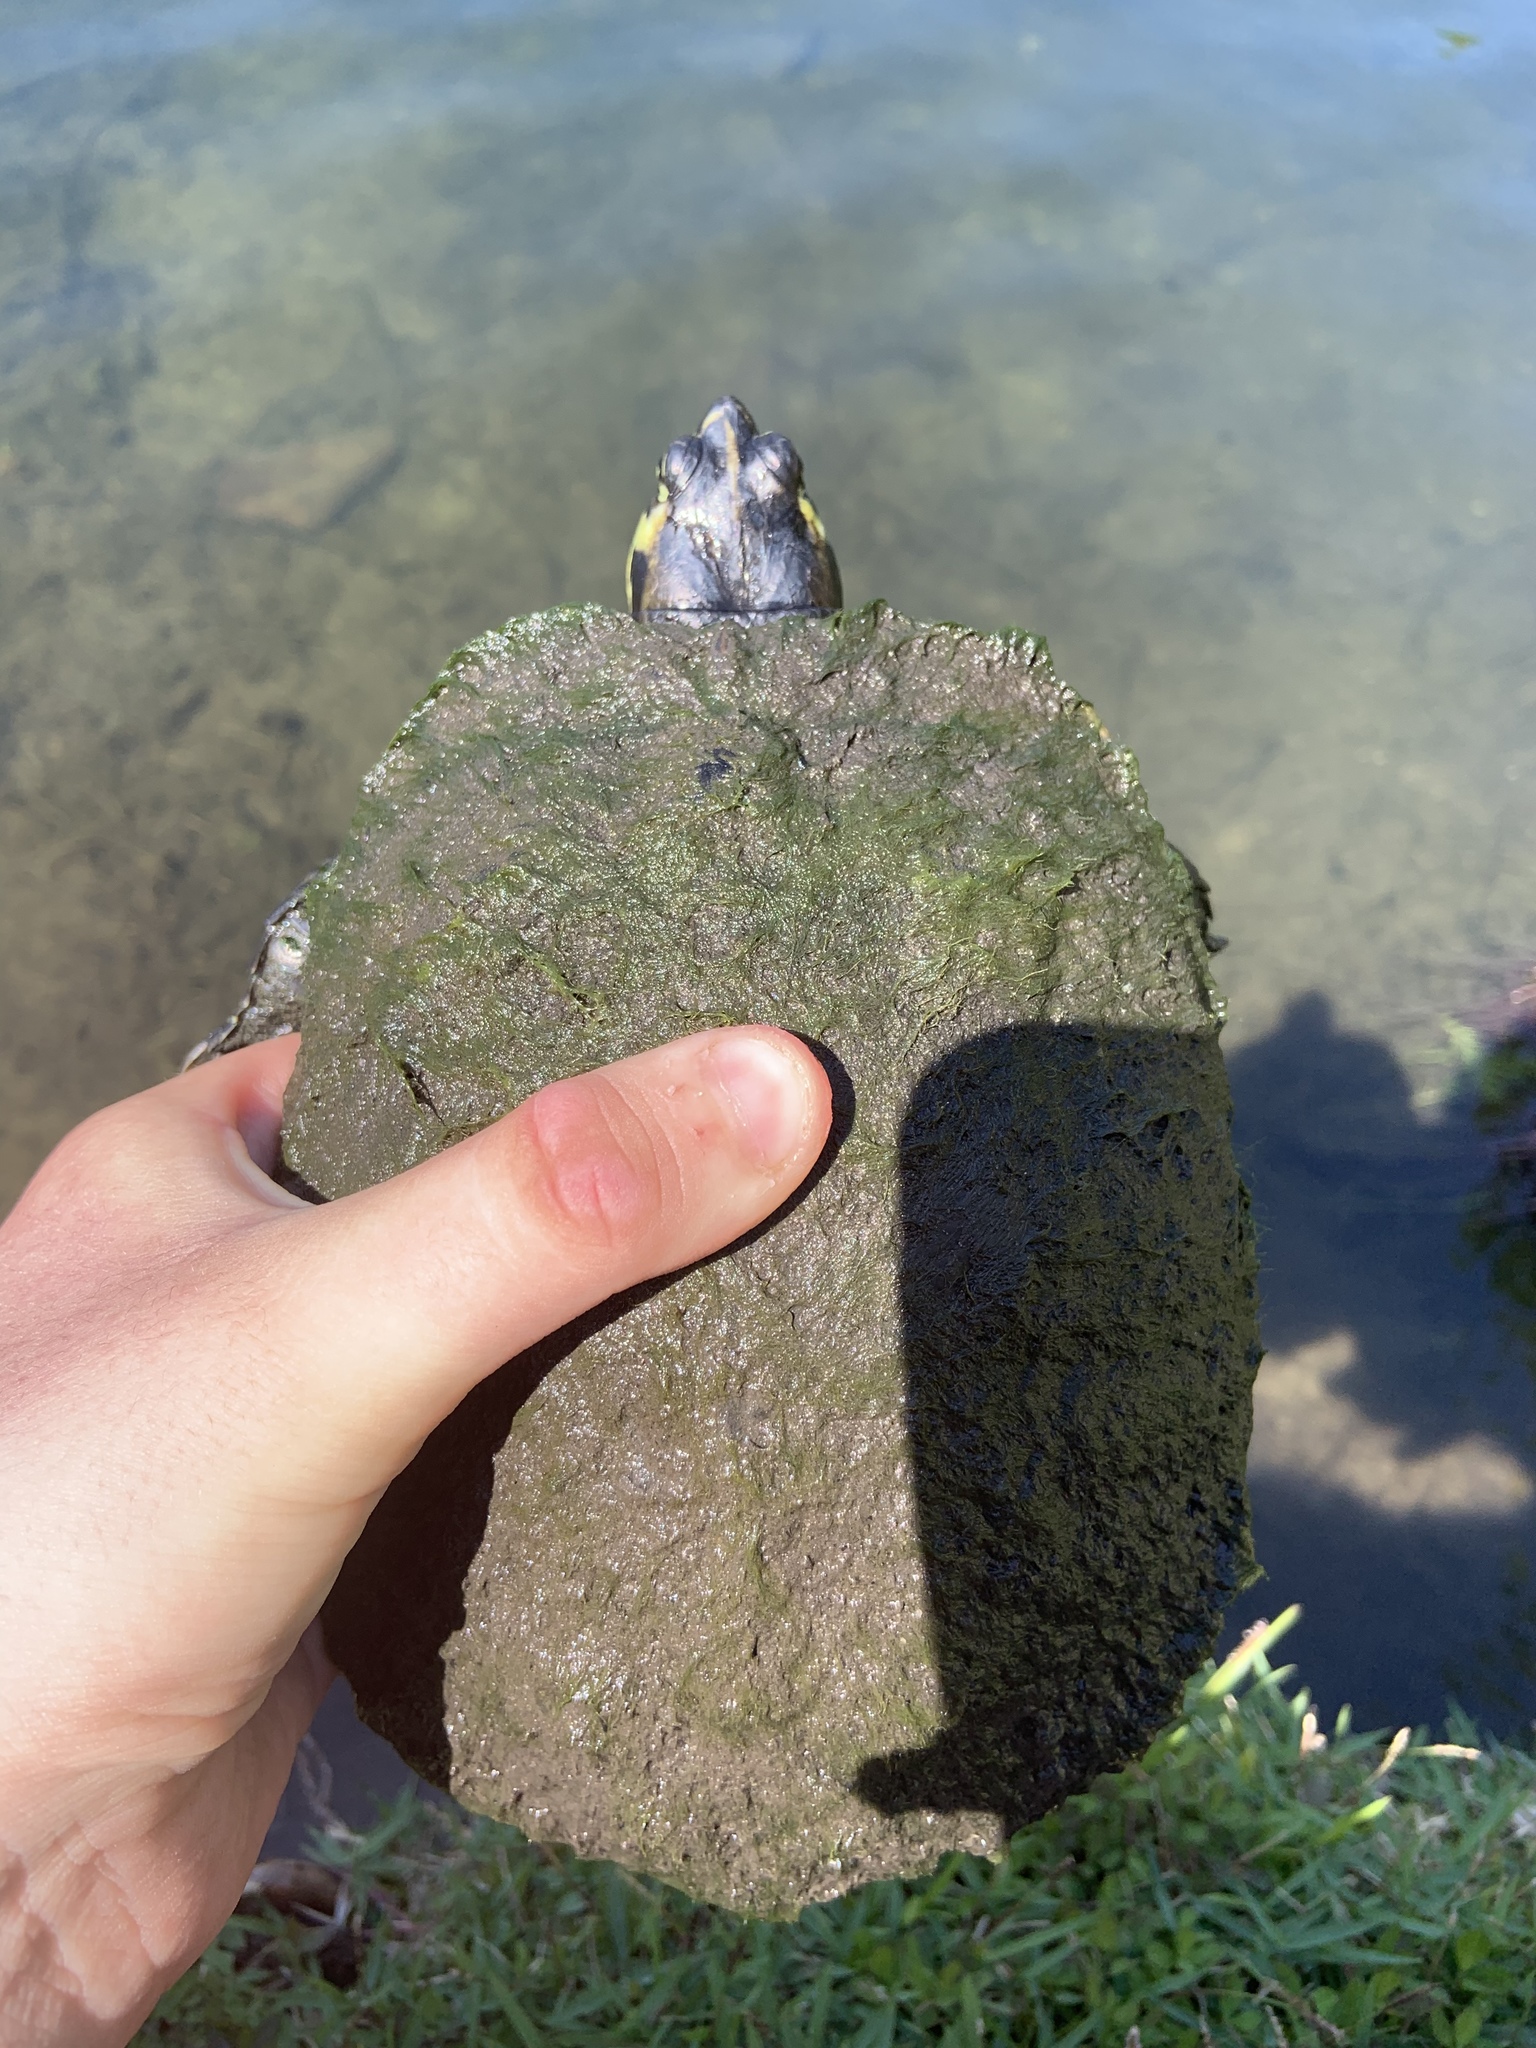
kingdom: Animalia
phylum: Chordata
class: Testudines
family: Emydidae
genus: Trachemys
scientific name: Trachemys scripta
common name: Slider
